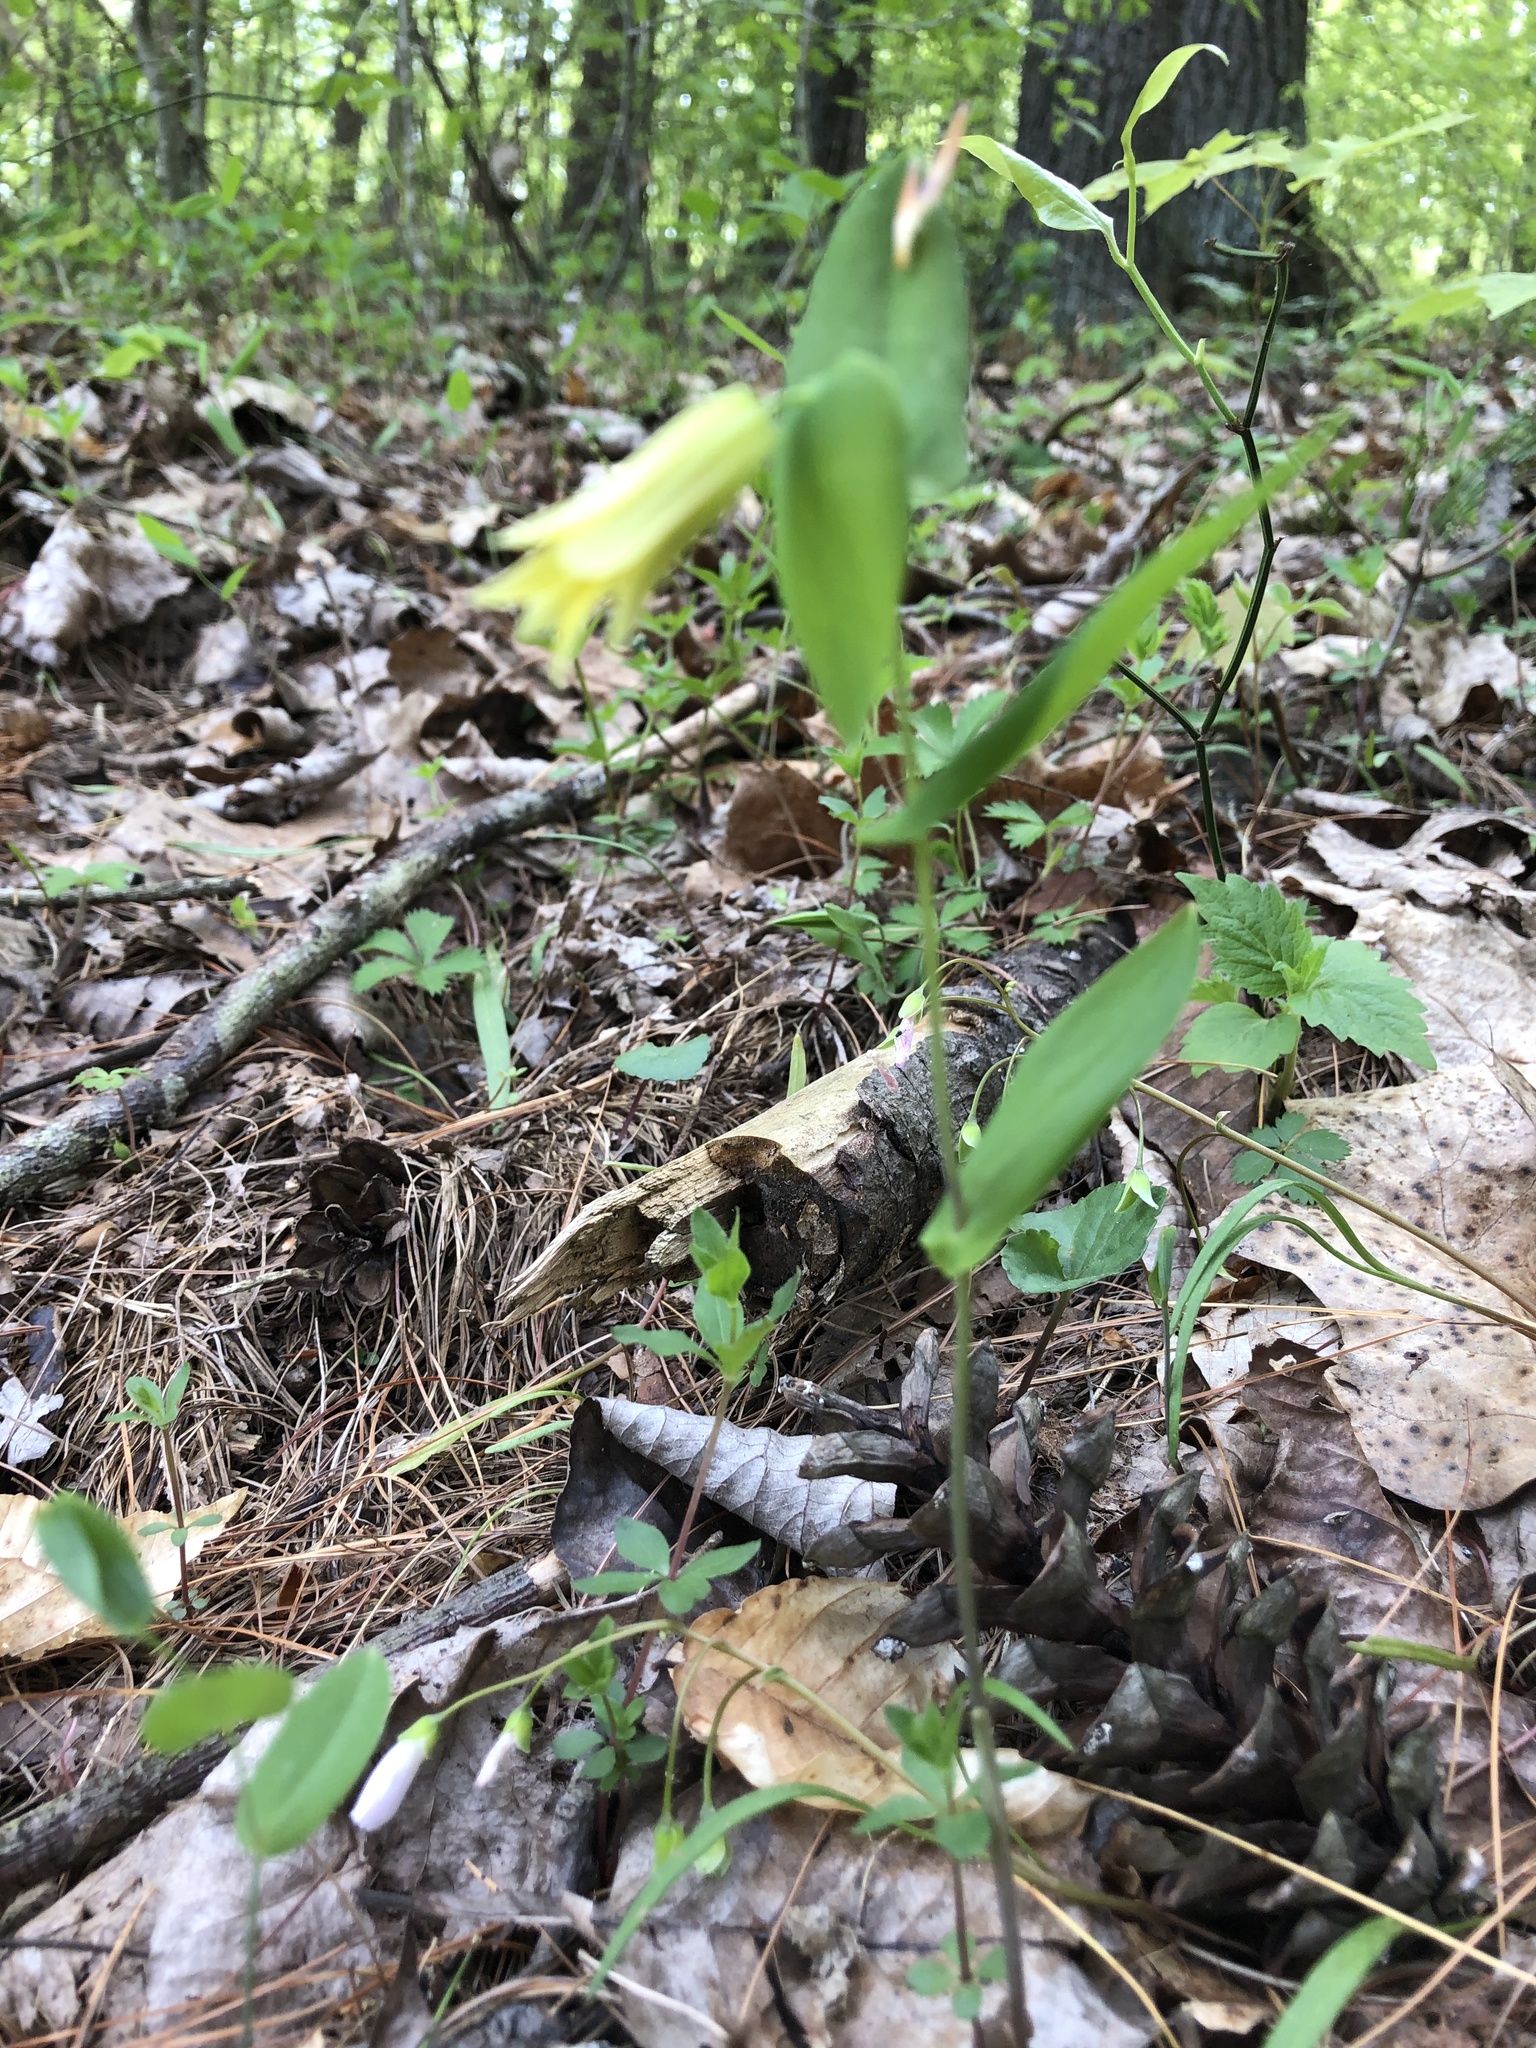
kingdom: Plantae
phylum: Tracheophyta
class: Liliopsida
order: Liliales
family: Colchicaceae
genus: Uvularia
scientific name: Uvularia perfoliata
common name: Perfoliate bellwort
